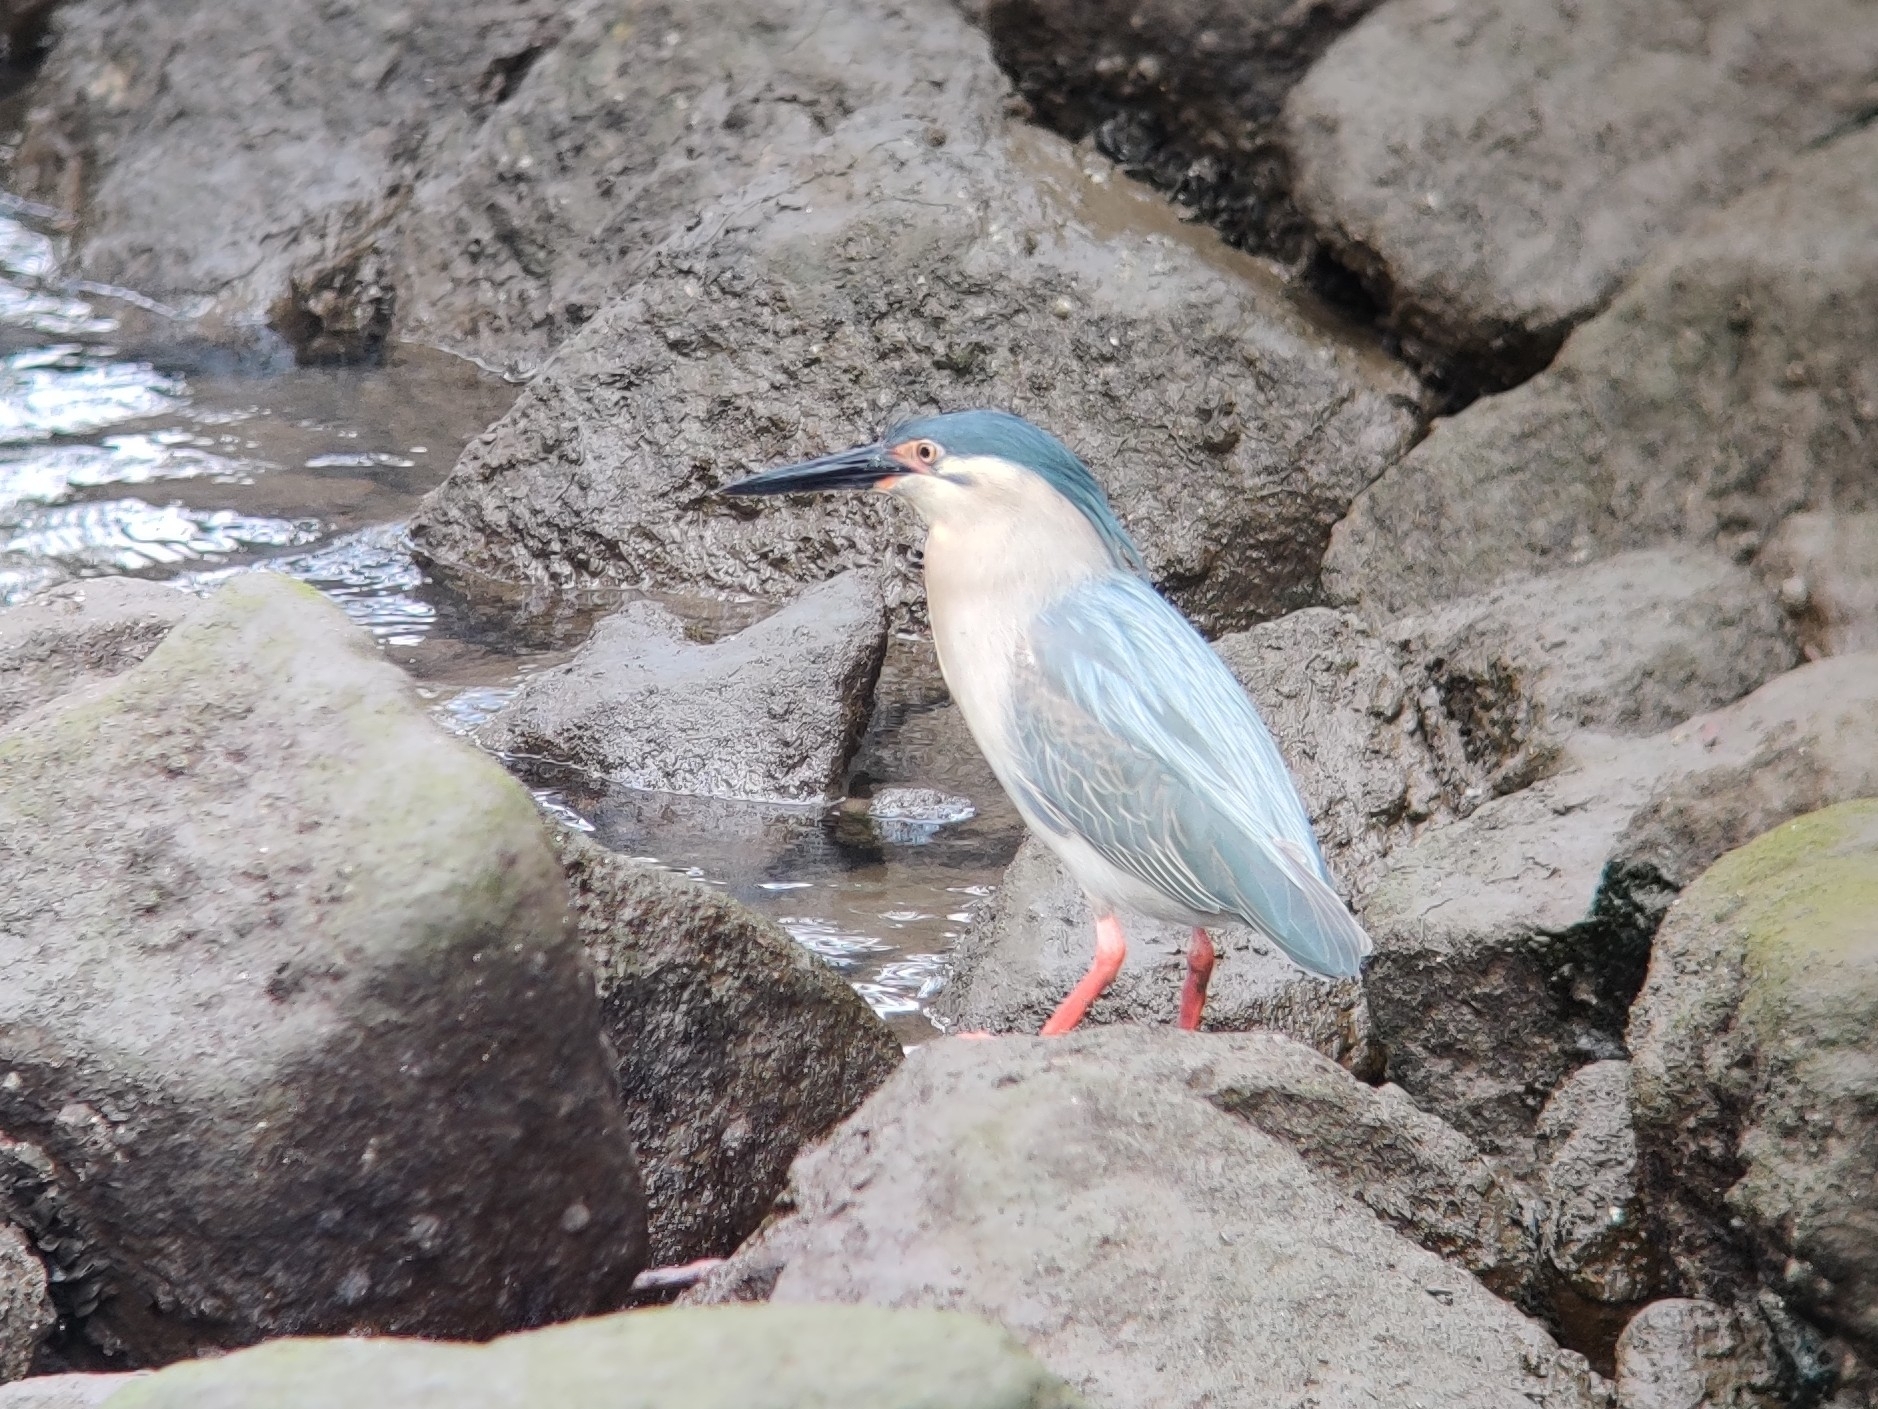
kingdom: Animalia
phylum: Chordata
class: Aves
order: Pelecaniformes
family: Ardeidae
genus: Butorides
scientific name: Butorides striata
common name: Striated heron
